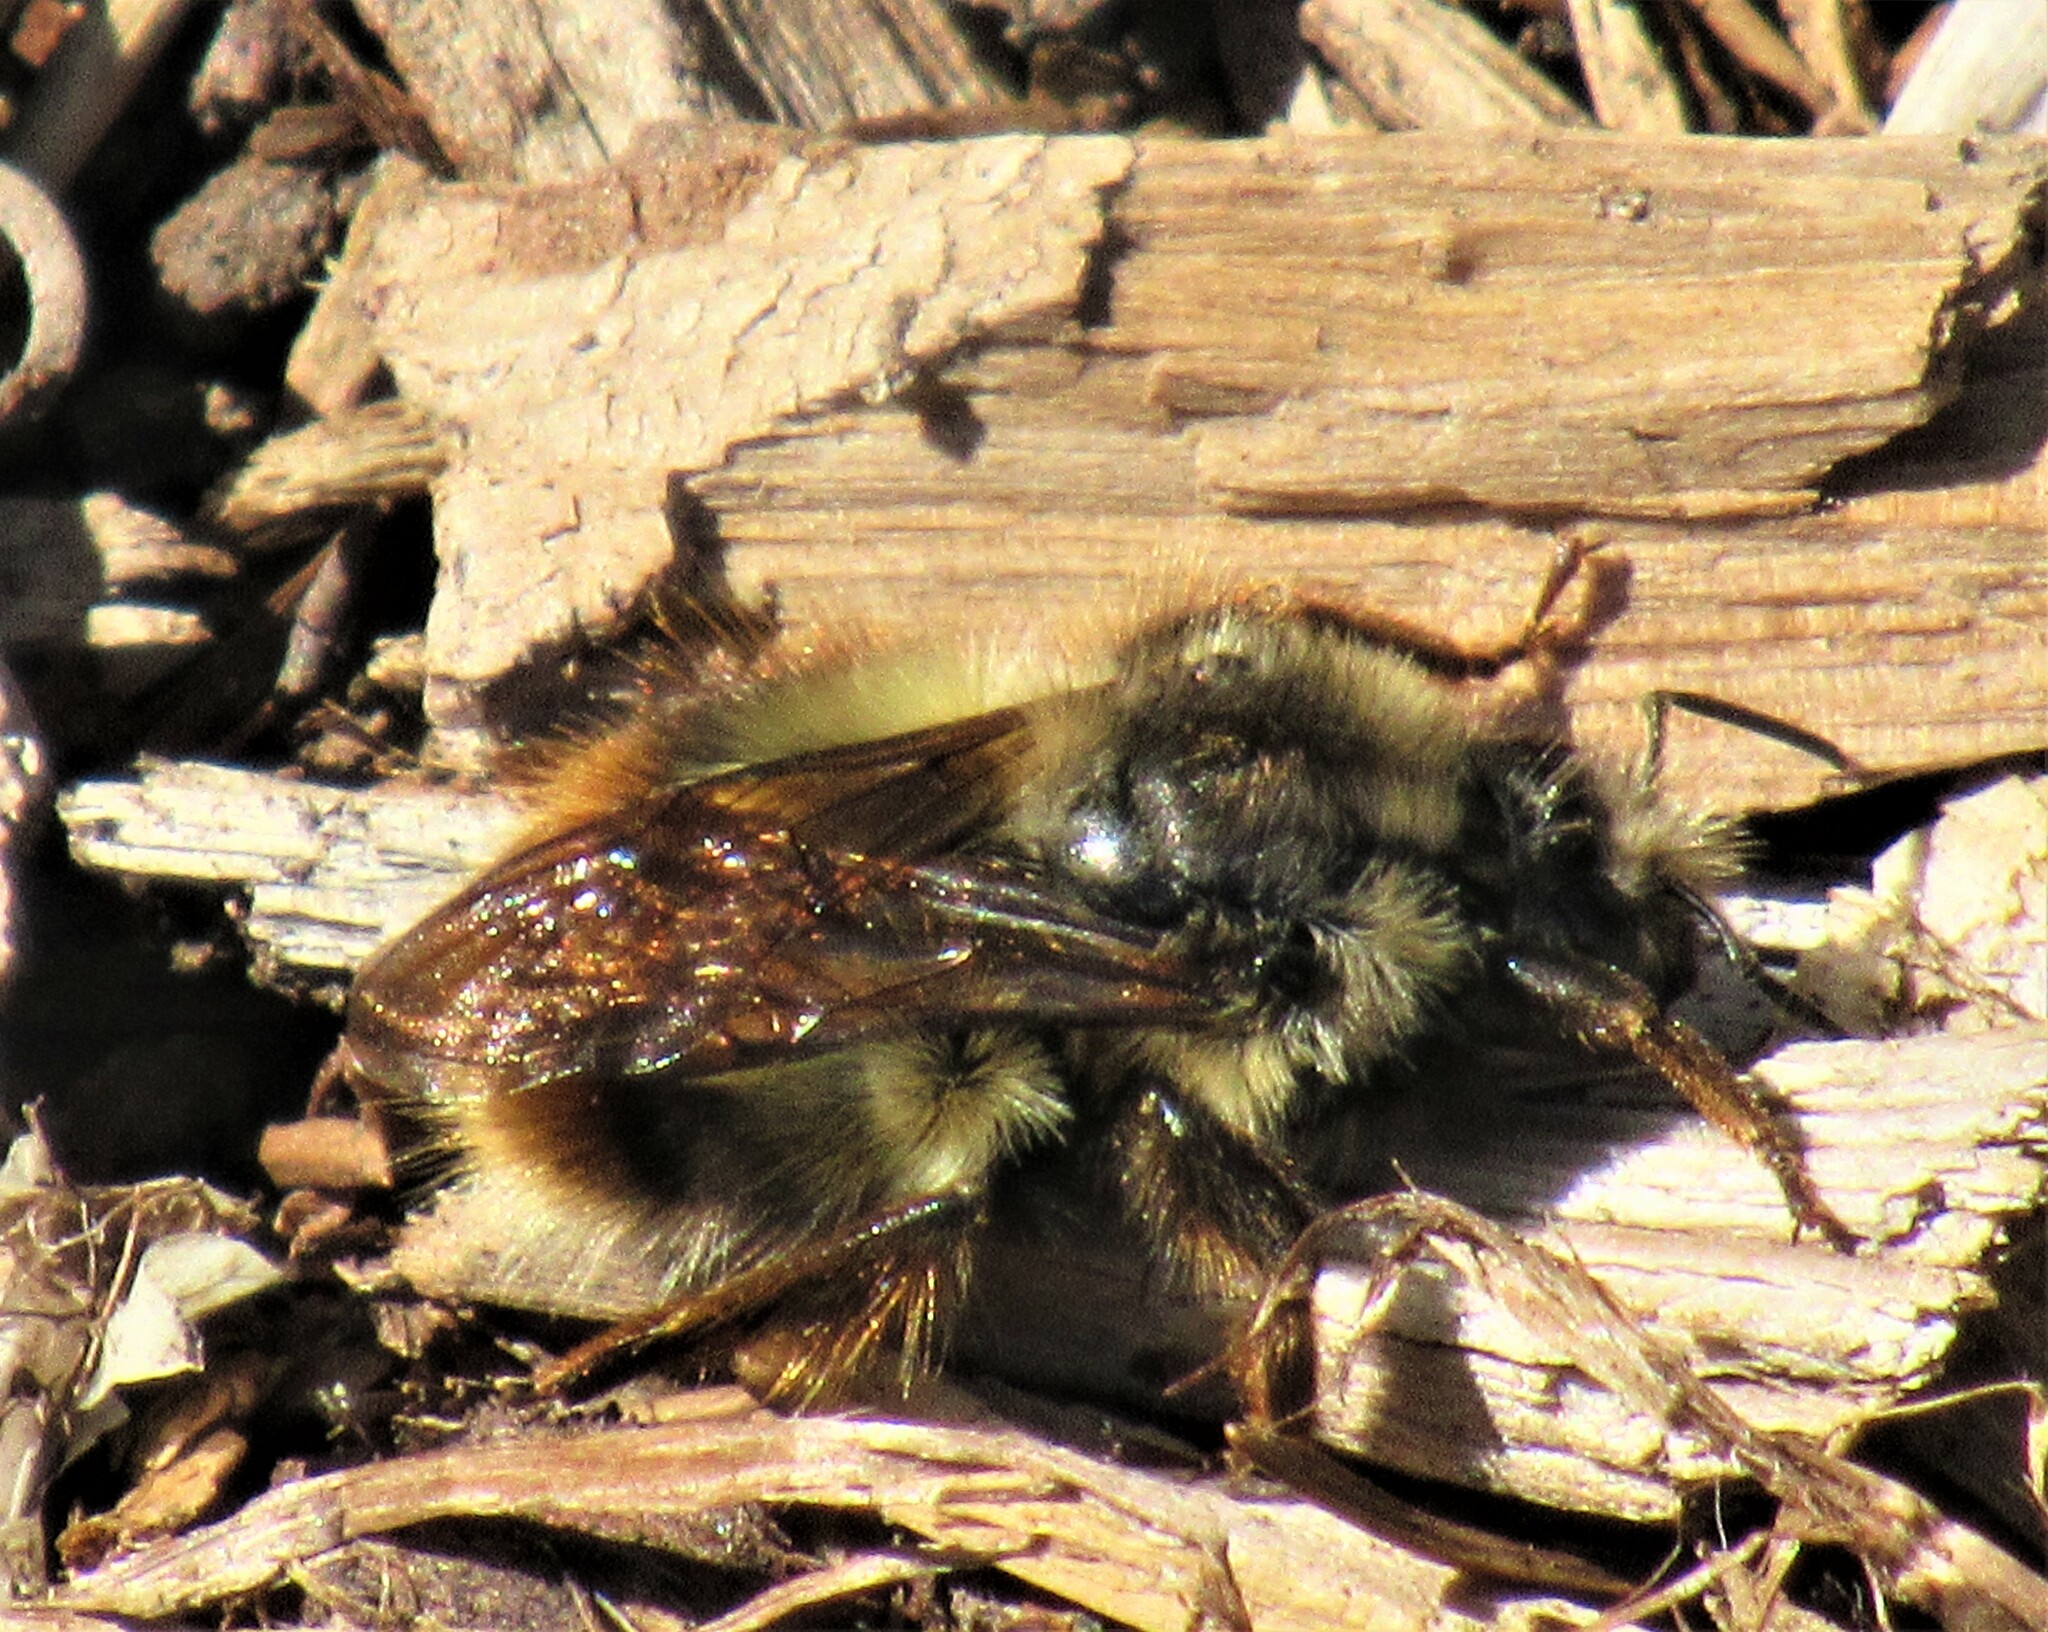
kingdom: Animalia
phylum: Arthropoda
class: Insecta
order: Hymenoptera
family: Apidae
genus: Bombus
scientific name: Bombus mixtus
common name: Fuzzy-horned bumble bee
